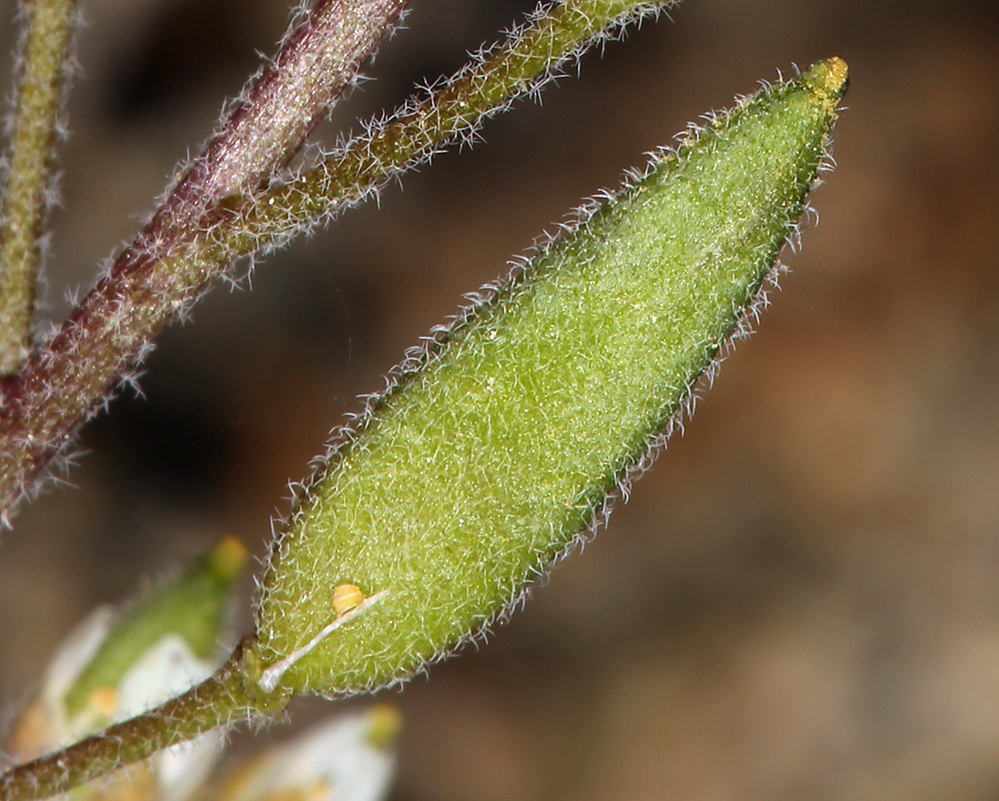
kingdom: Plantae
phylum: Tracheophyta
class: Magnoliopsida
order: Brassicales
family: Brassicaceae
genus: Draba
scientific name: Draba californica
